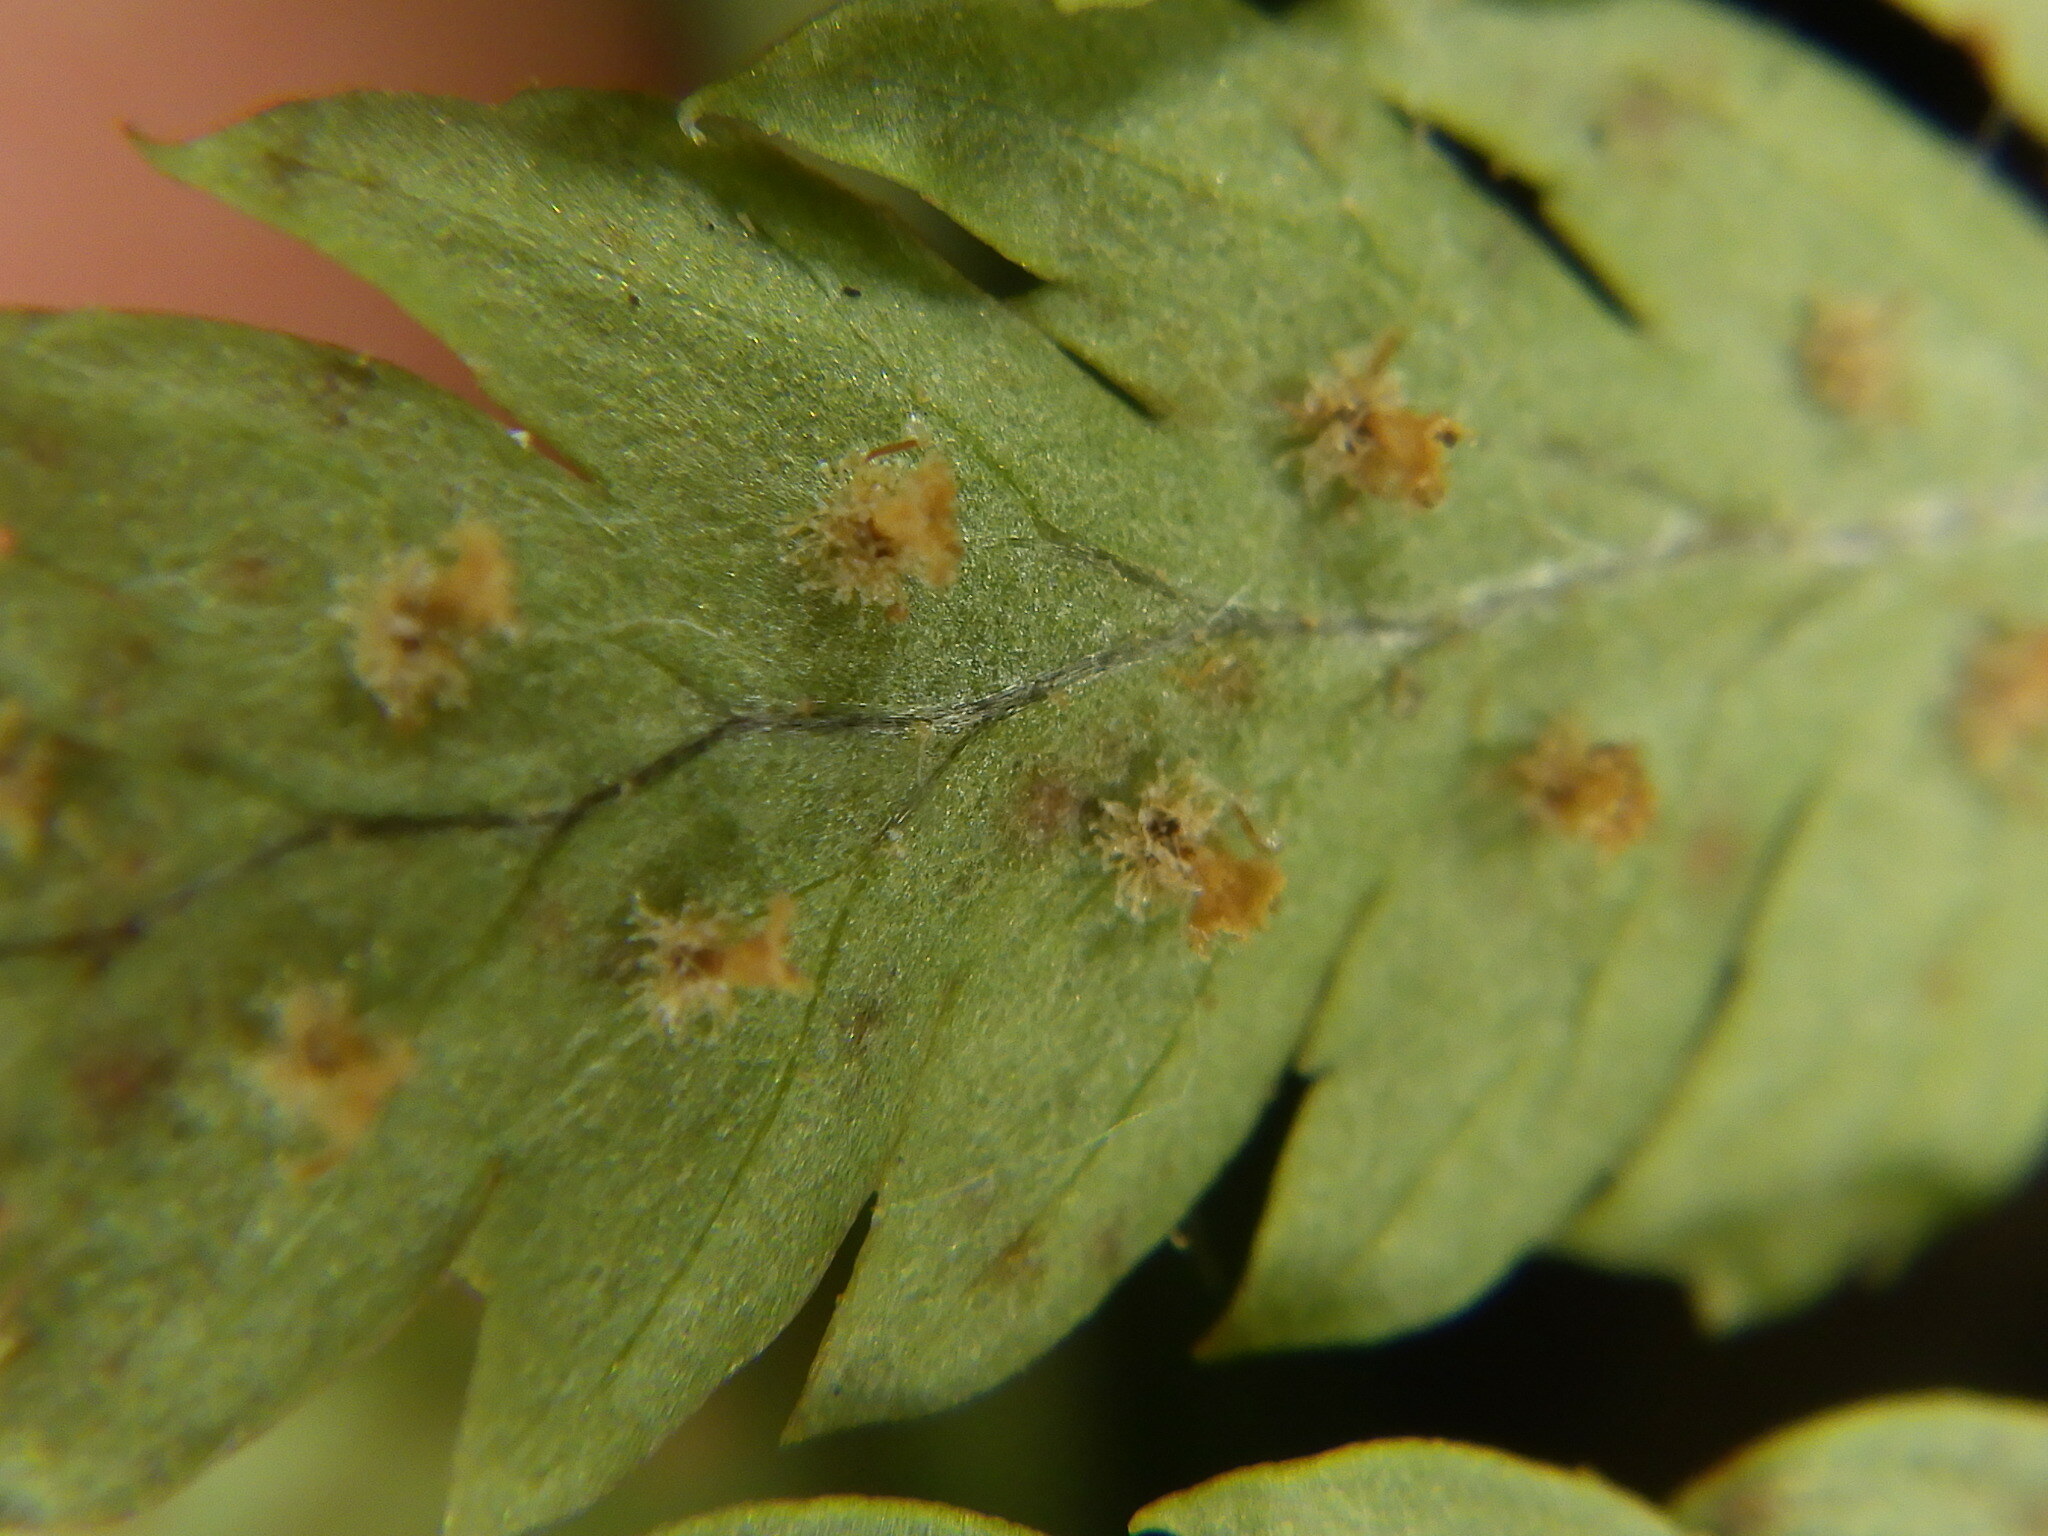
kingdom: Plantae
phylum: Tracheophyta
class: Polypodiopsida
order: Polypodiales
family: Dryopteridaceae
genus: Dryopteris
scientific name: Dryopteris intermedia
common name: Evergreen wood fern
